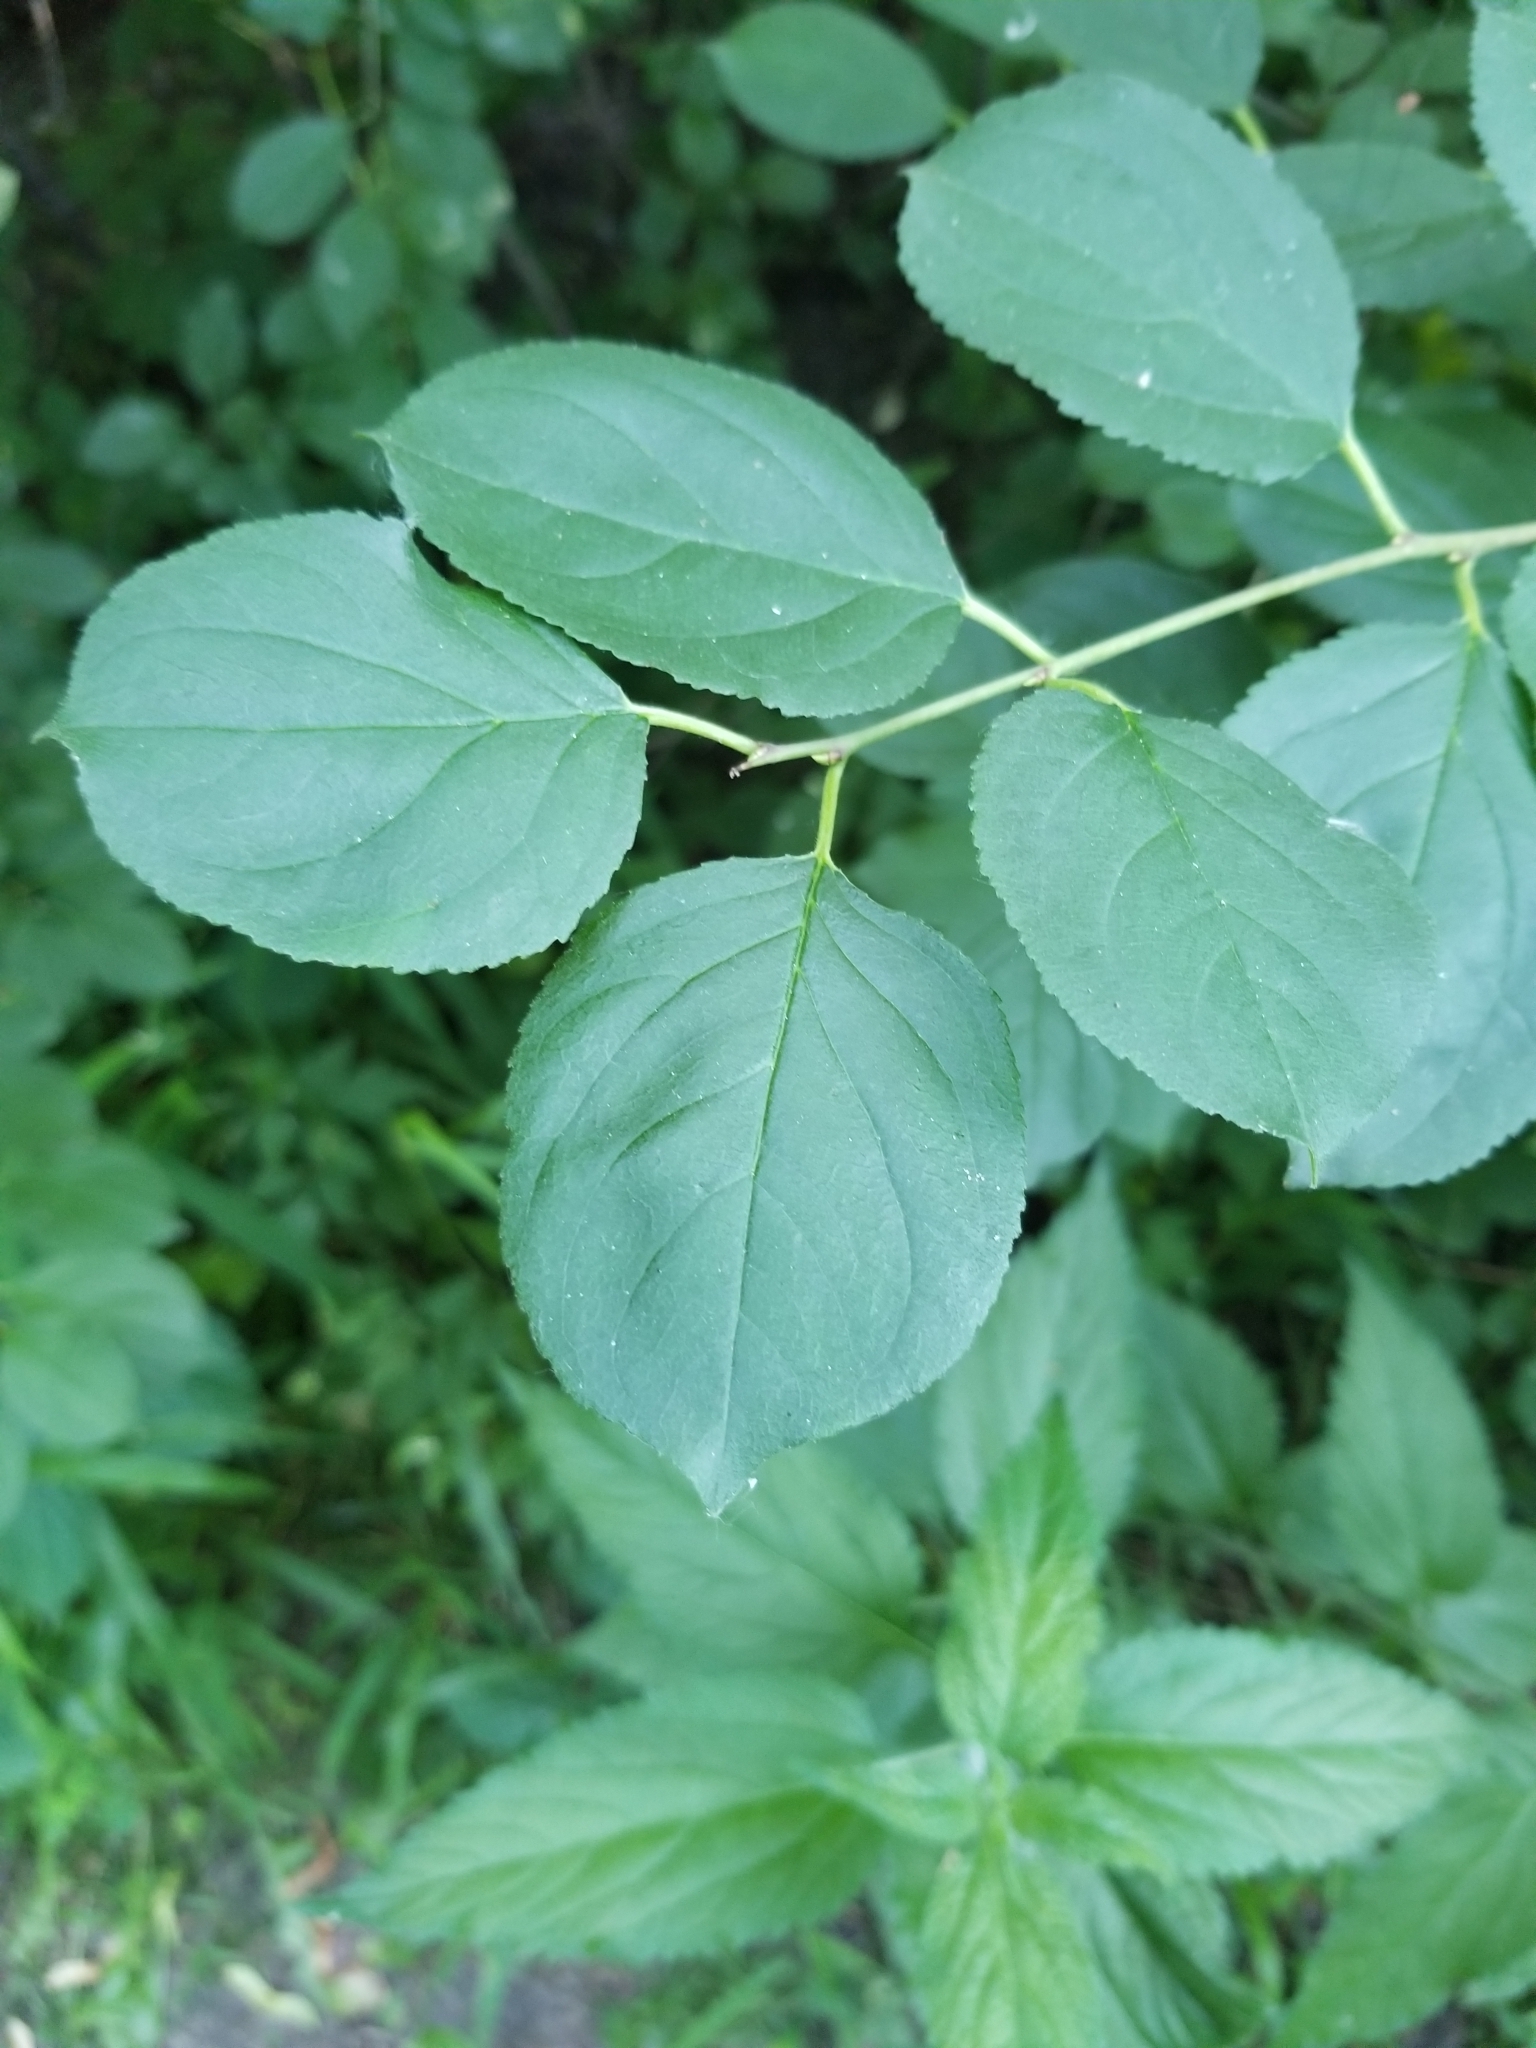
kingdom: Plantae
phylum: Tracheophyta
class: Magnoliopsida
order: Rosales
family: Rhamnaceae
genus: Rhamnus
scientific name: Rhamnus cathartica
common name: Common buckthorn
